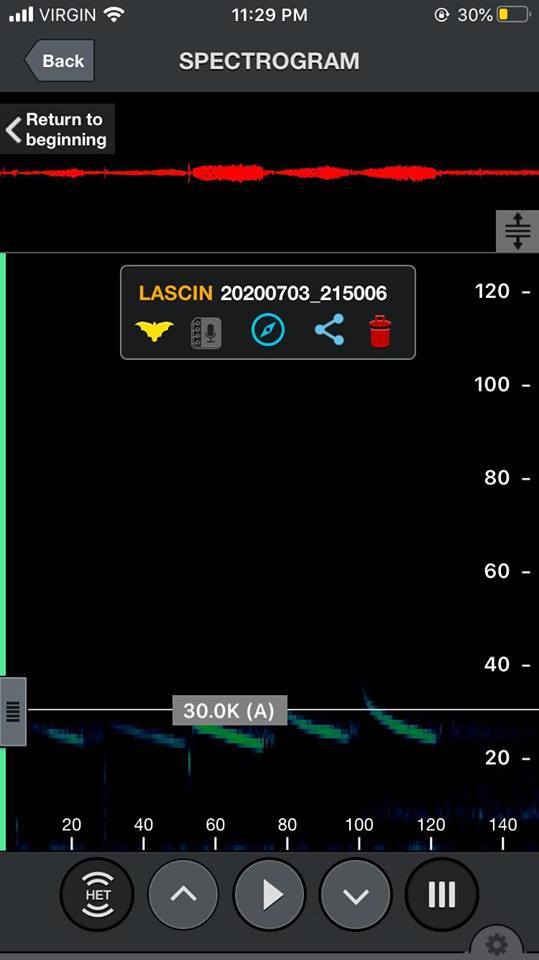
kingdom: Animalia
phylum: Chordata
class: Mammalia
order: Chiroptera
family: Vespertilionidae
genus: Aeorestes
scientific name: Aeorestes cinereus
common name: North american hoary bat
